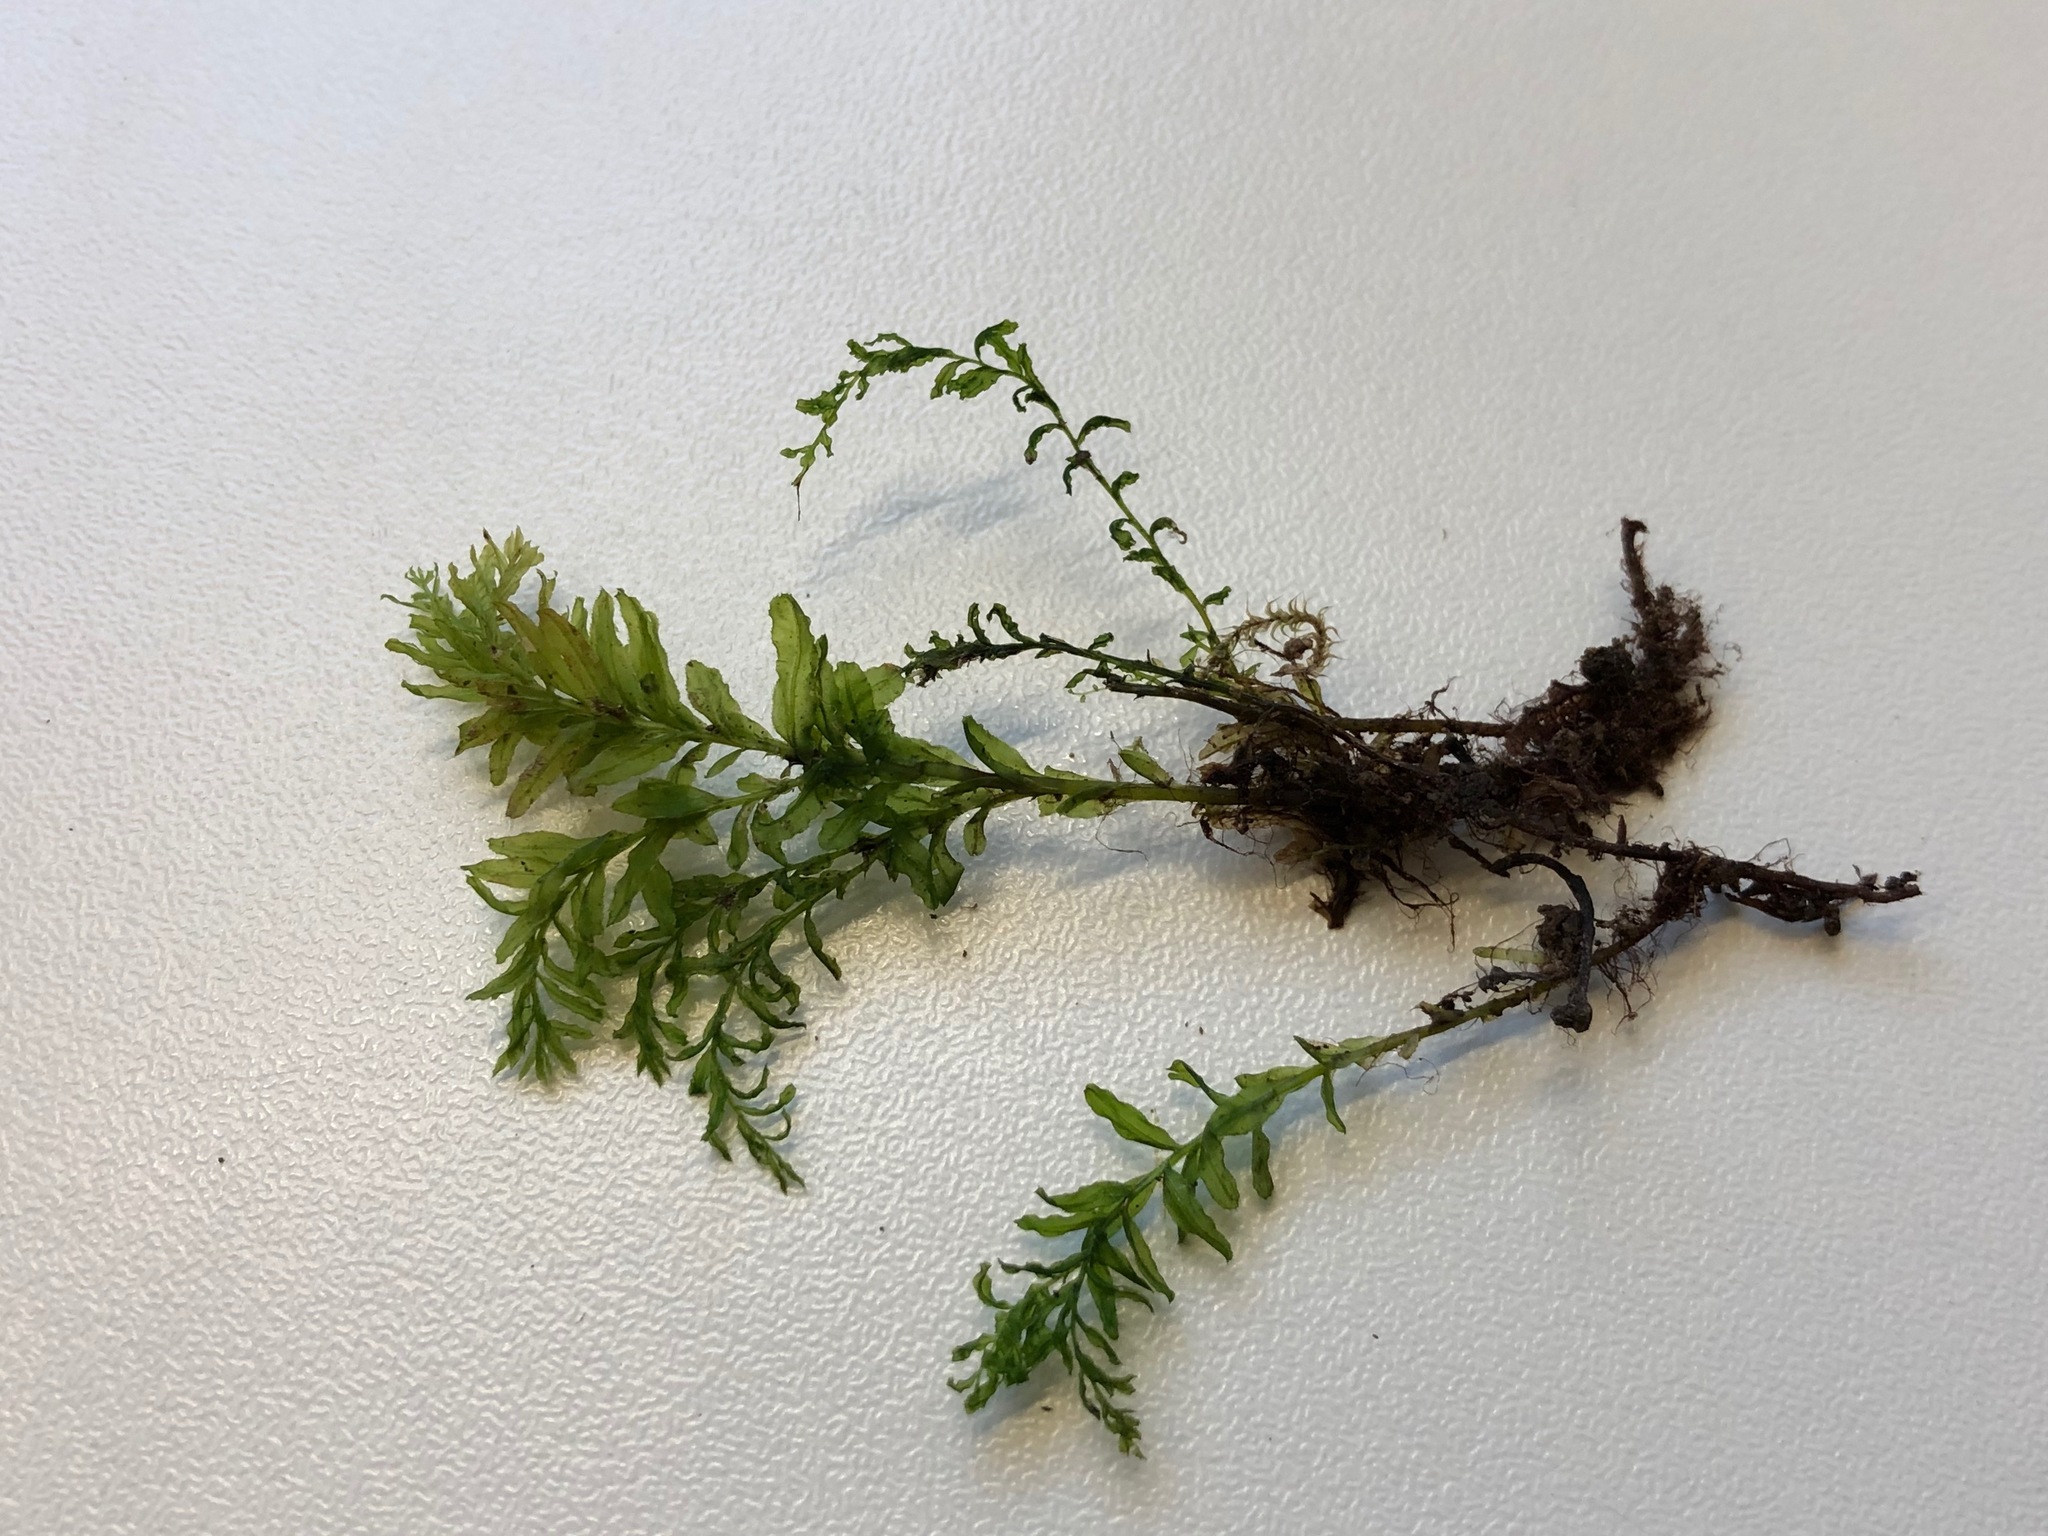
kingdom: Plantae
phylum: Bryophyta
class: Bryopsida
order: Bryales
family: Mniaceae
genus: Plagiomnium
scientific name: Plagiomnium undulatum
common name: Hart's-tongue thyme-moss
